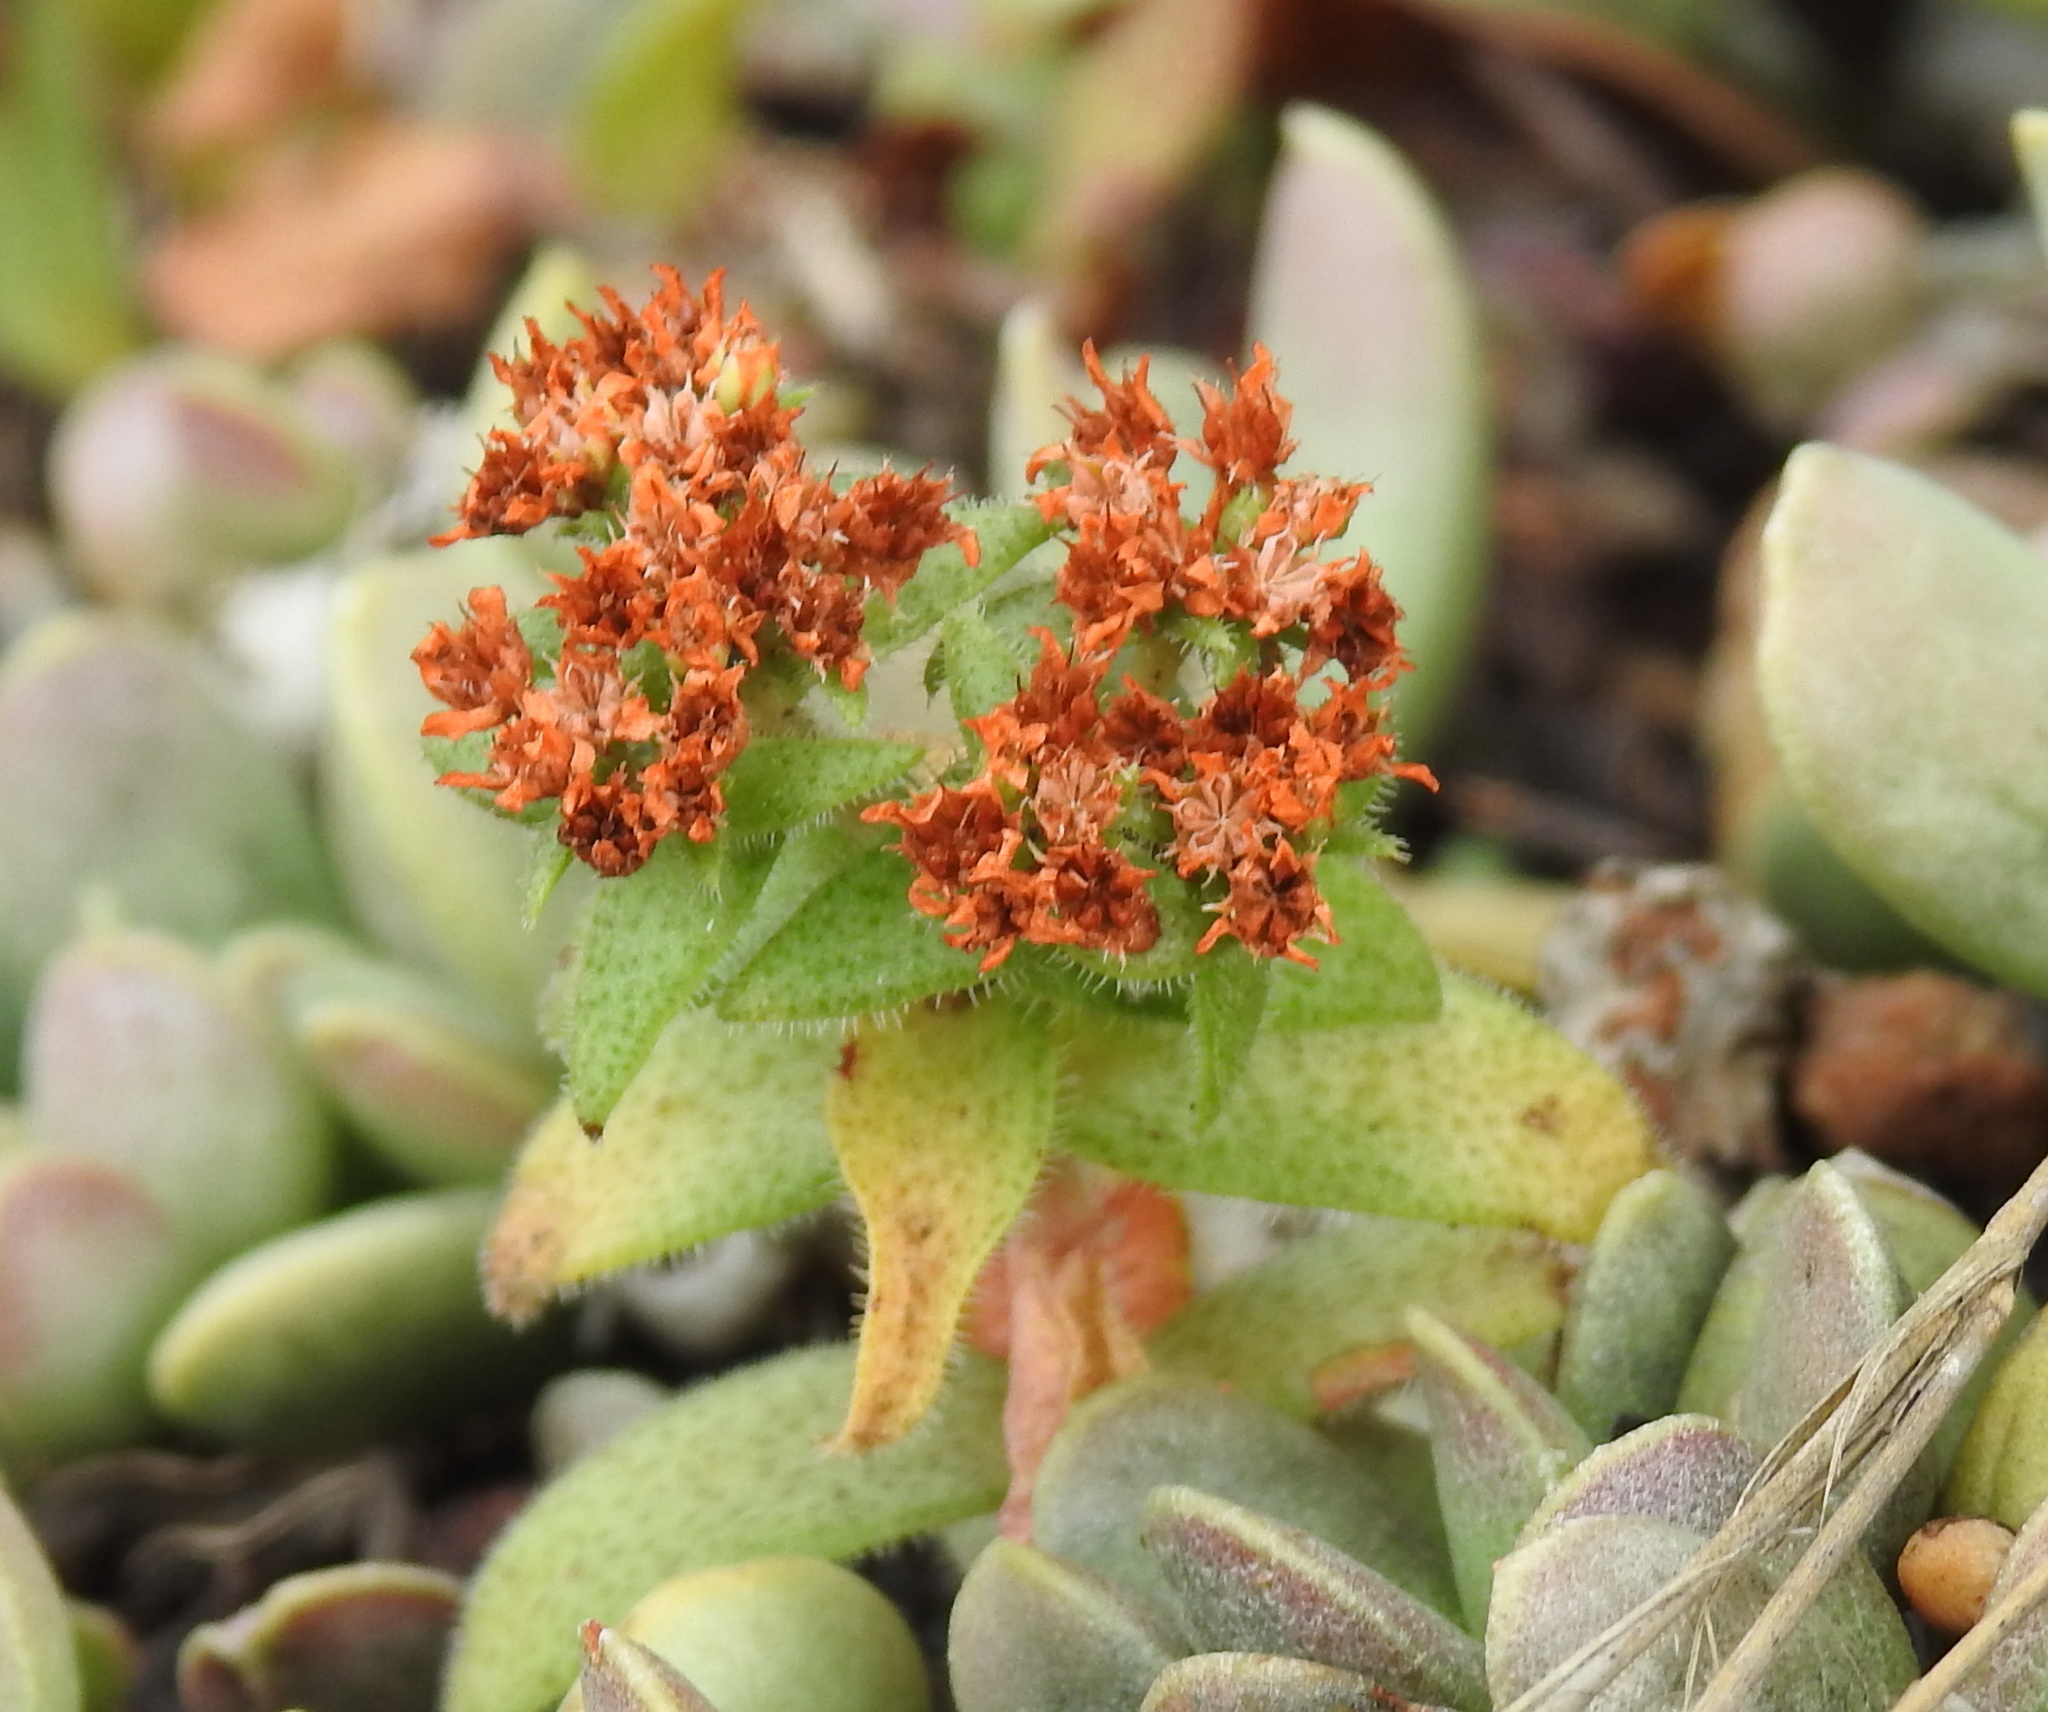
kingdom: Plantae
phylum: Tracheophyta
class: Magnoliopsida
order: Saxifragales
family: Crassulaceae
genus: Crassula
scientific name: Crassula setulosa
